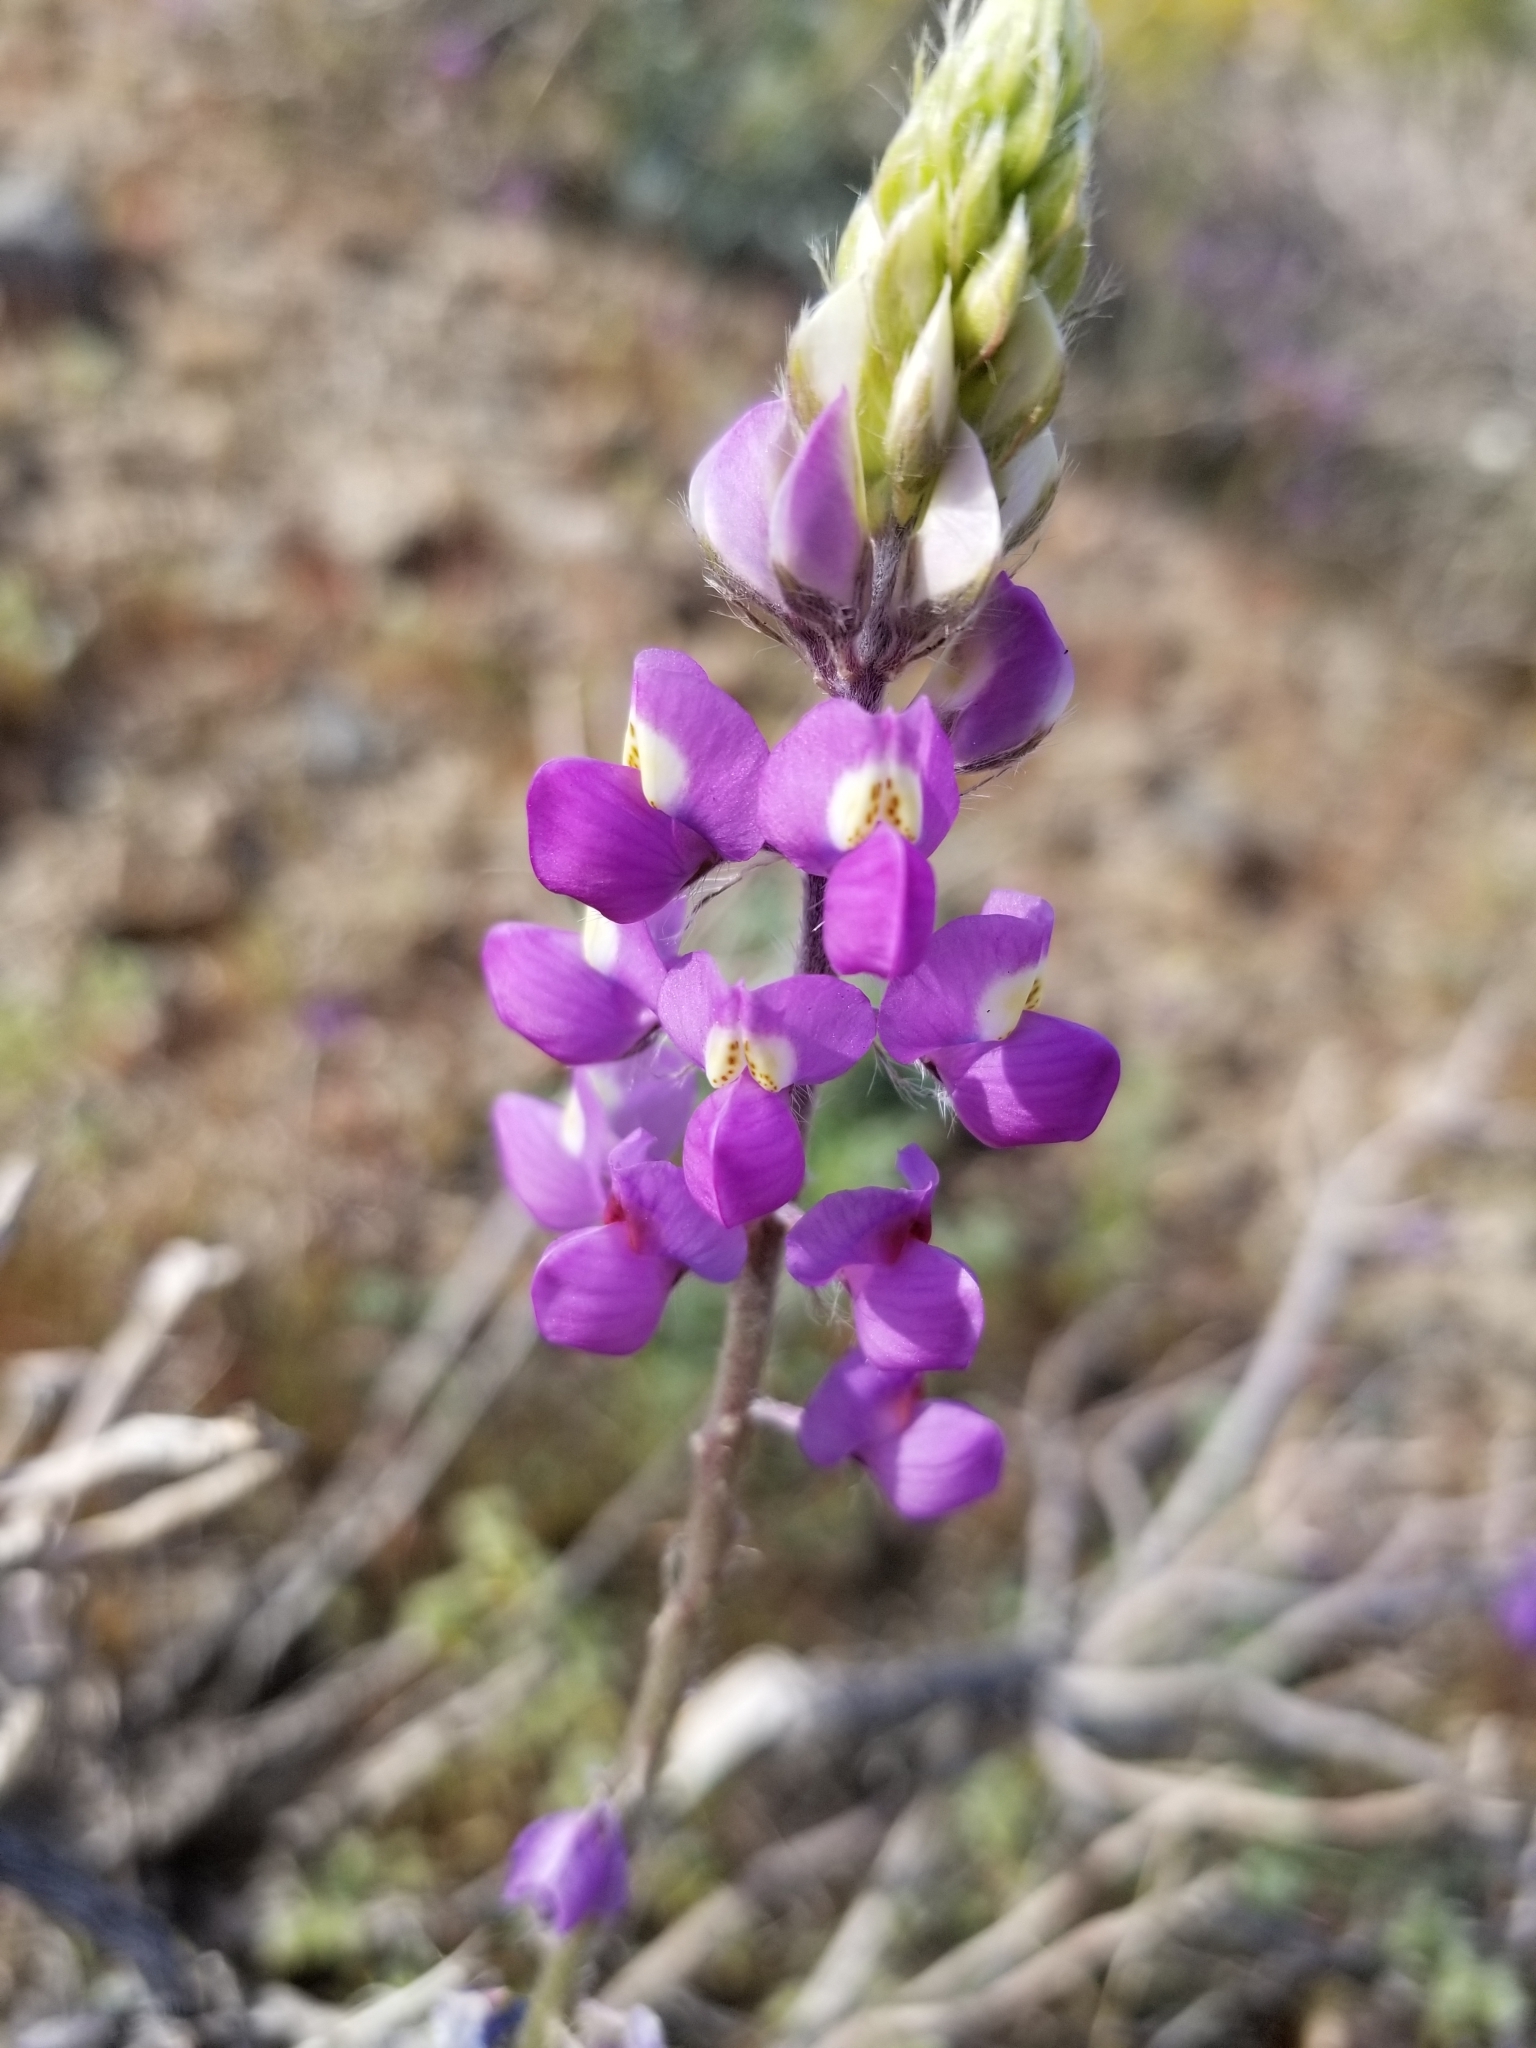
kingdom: Plantae
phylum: Tracheophyta
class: Magnoliopsida
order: Fabales
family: Fabaceae
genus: Lupinus
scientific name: Lupinus arizonicus
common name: Arizona lupine
